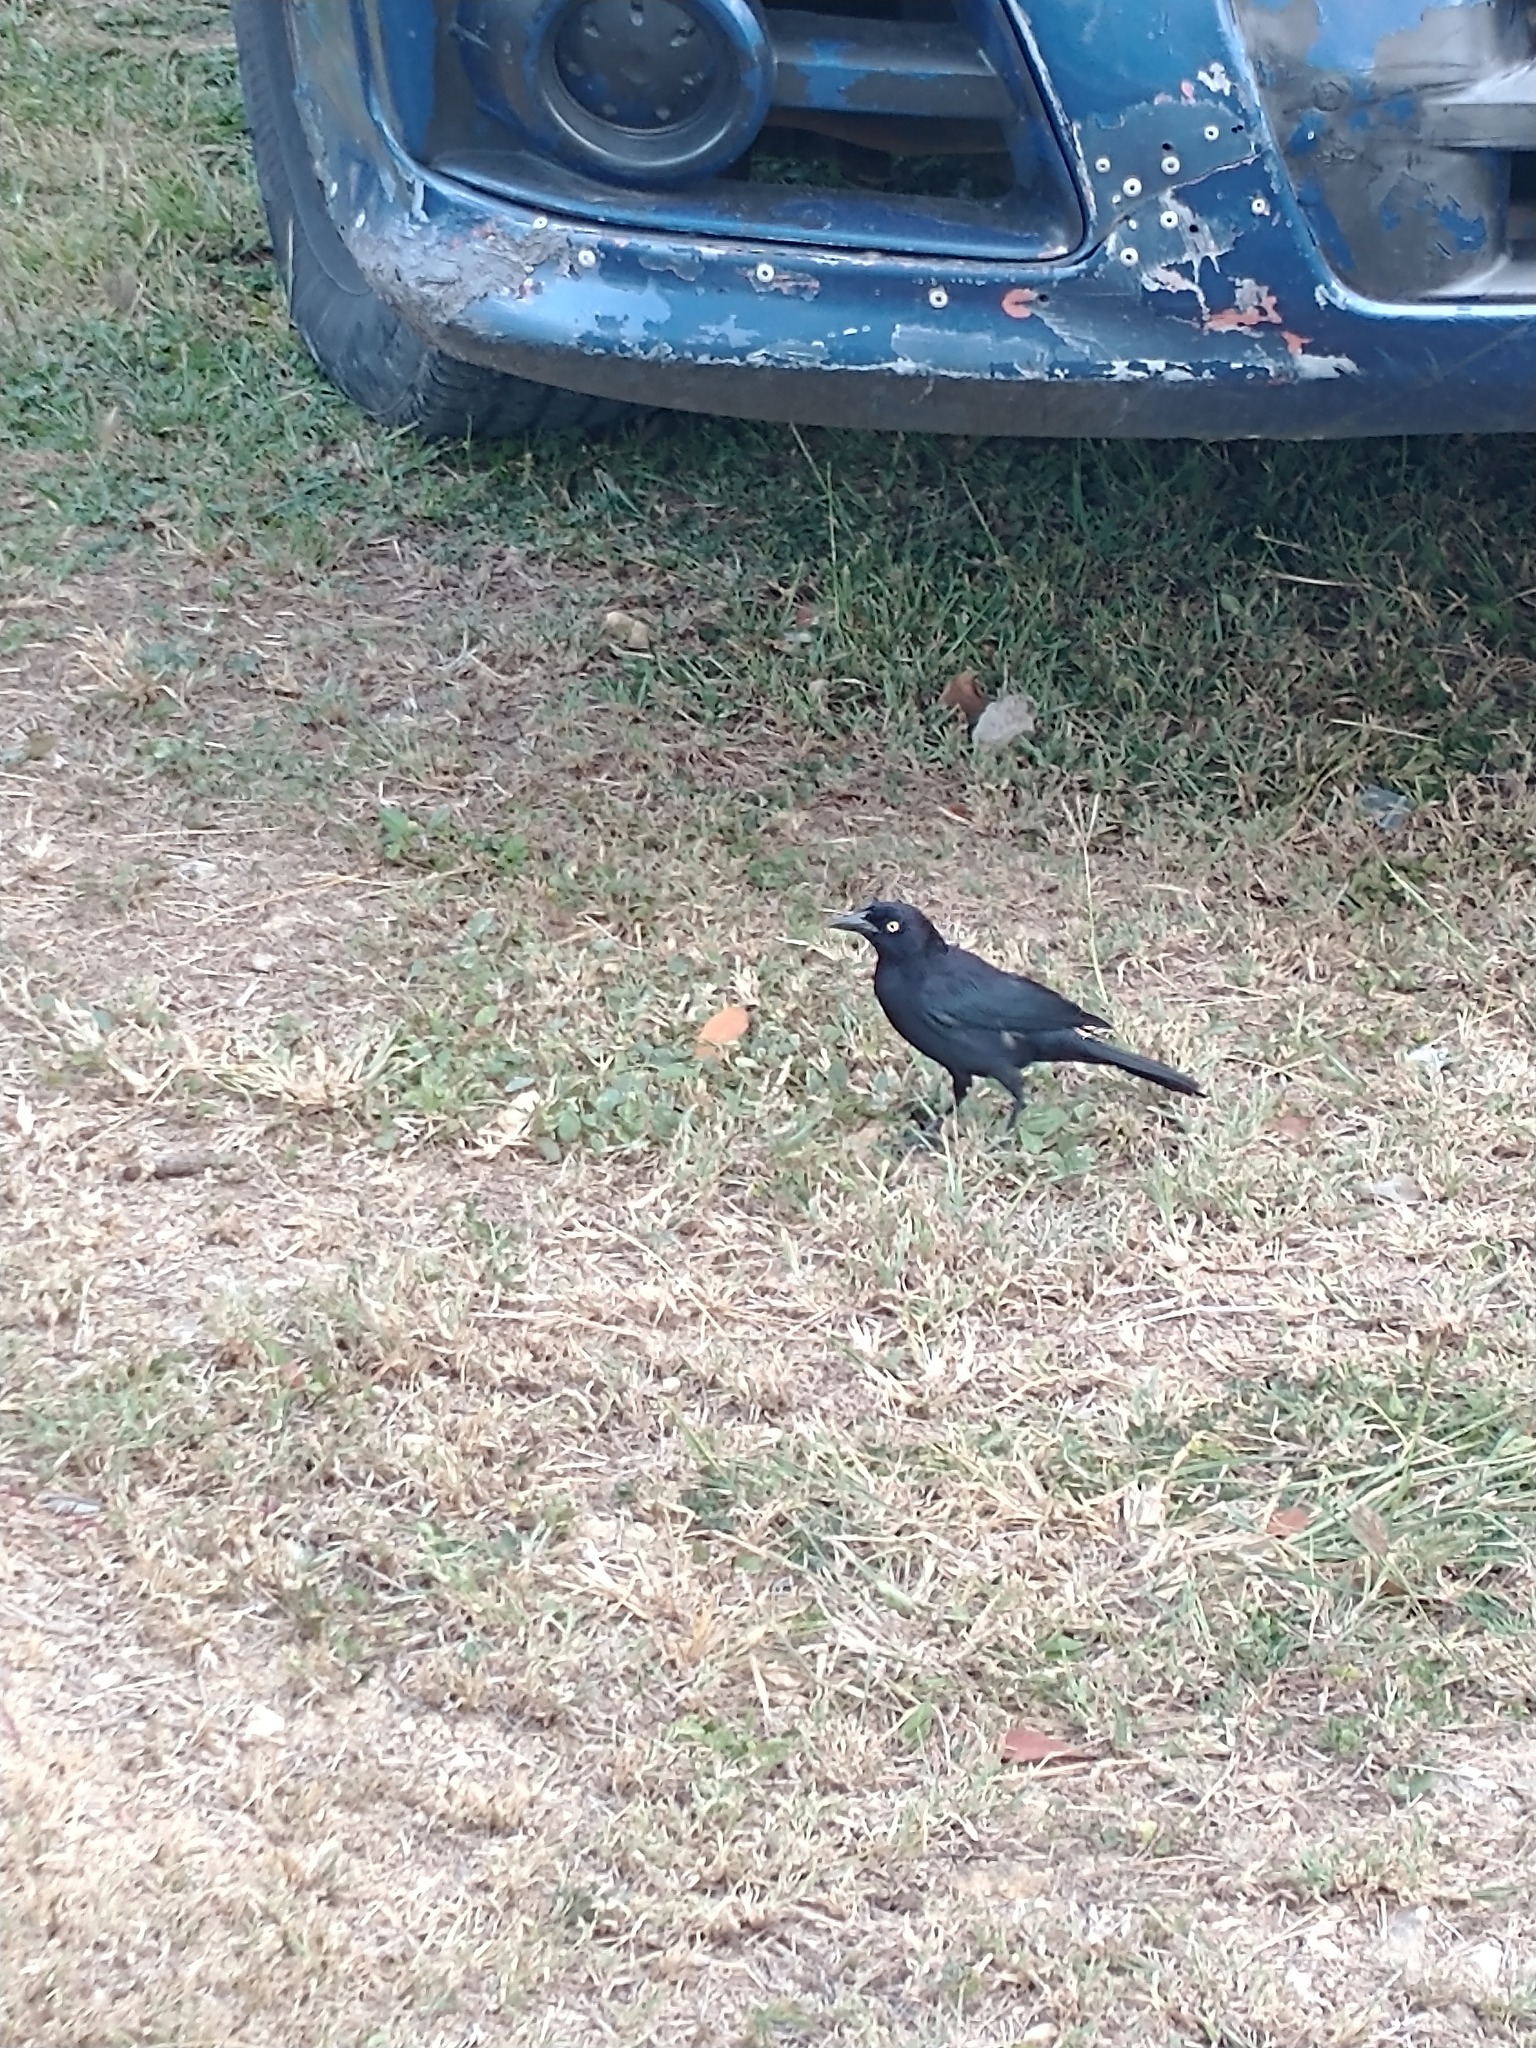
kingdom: Animalia
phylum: Chordata
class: Aves
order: Passeriformes
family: Icteridae
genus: Quiscalus
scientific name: Quiscalus lugubris
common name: Carib grackle
